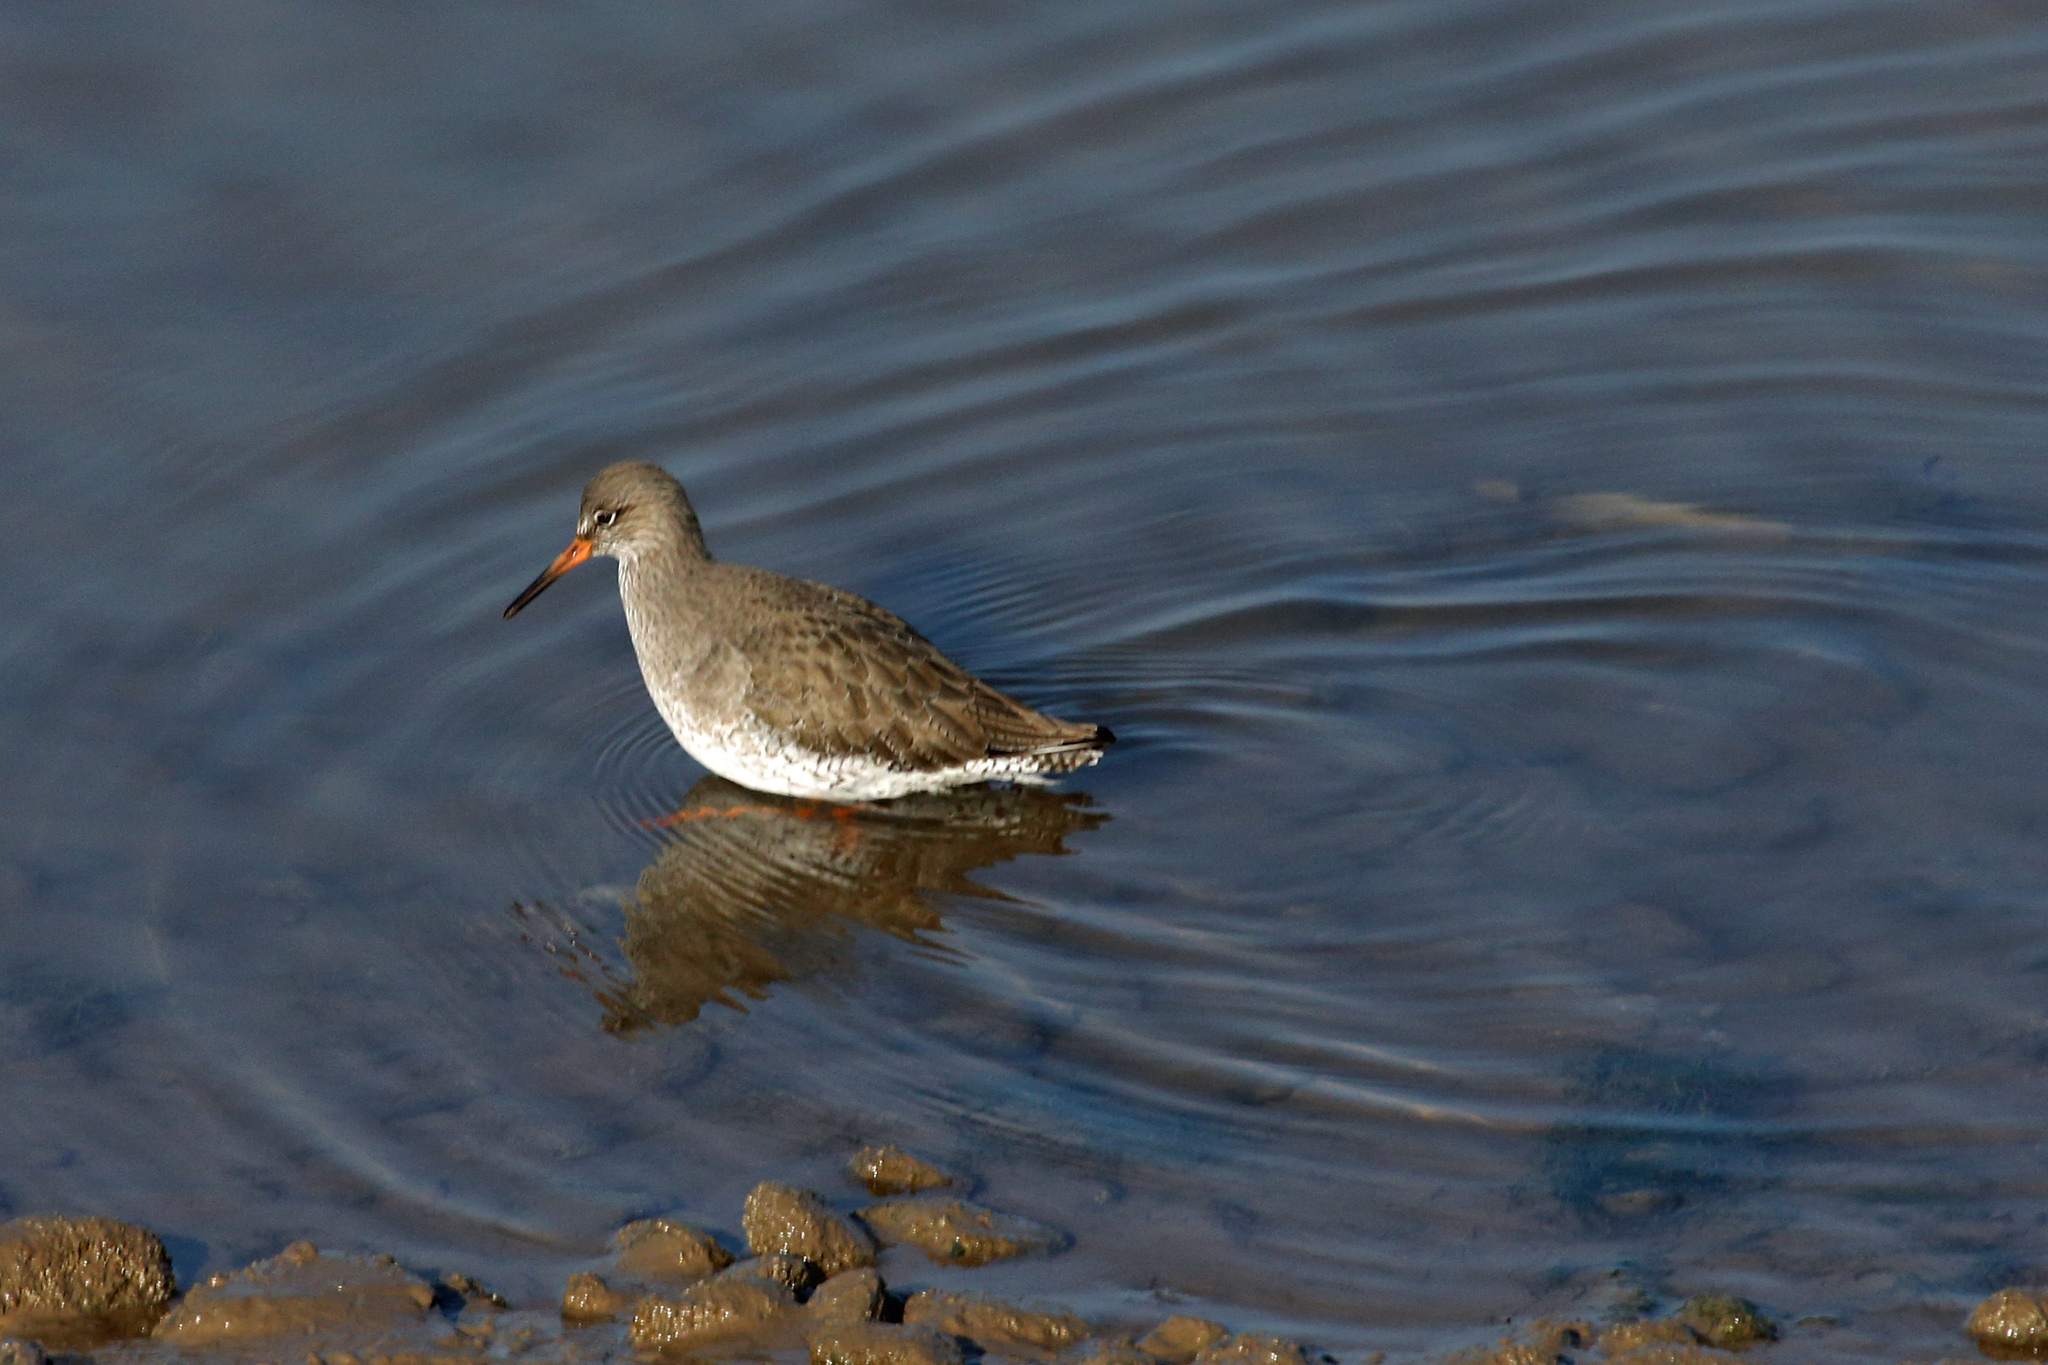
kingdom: Animalia
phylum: Chordata
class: Aves
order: Charadriiformes
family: Scolopacidae
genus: Tringa
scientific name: Tringa totanus
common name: Common redshank
